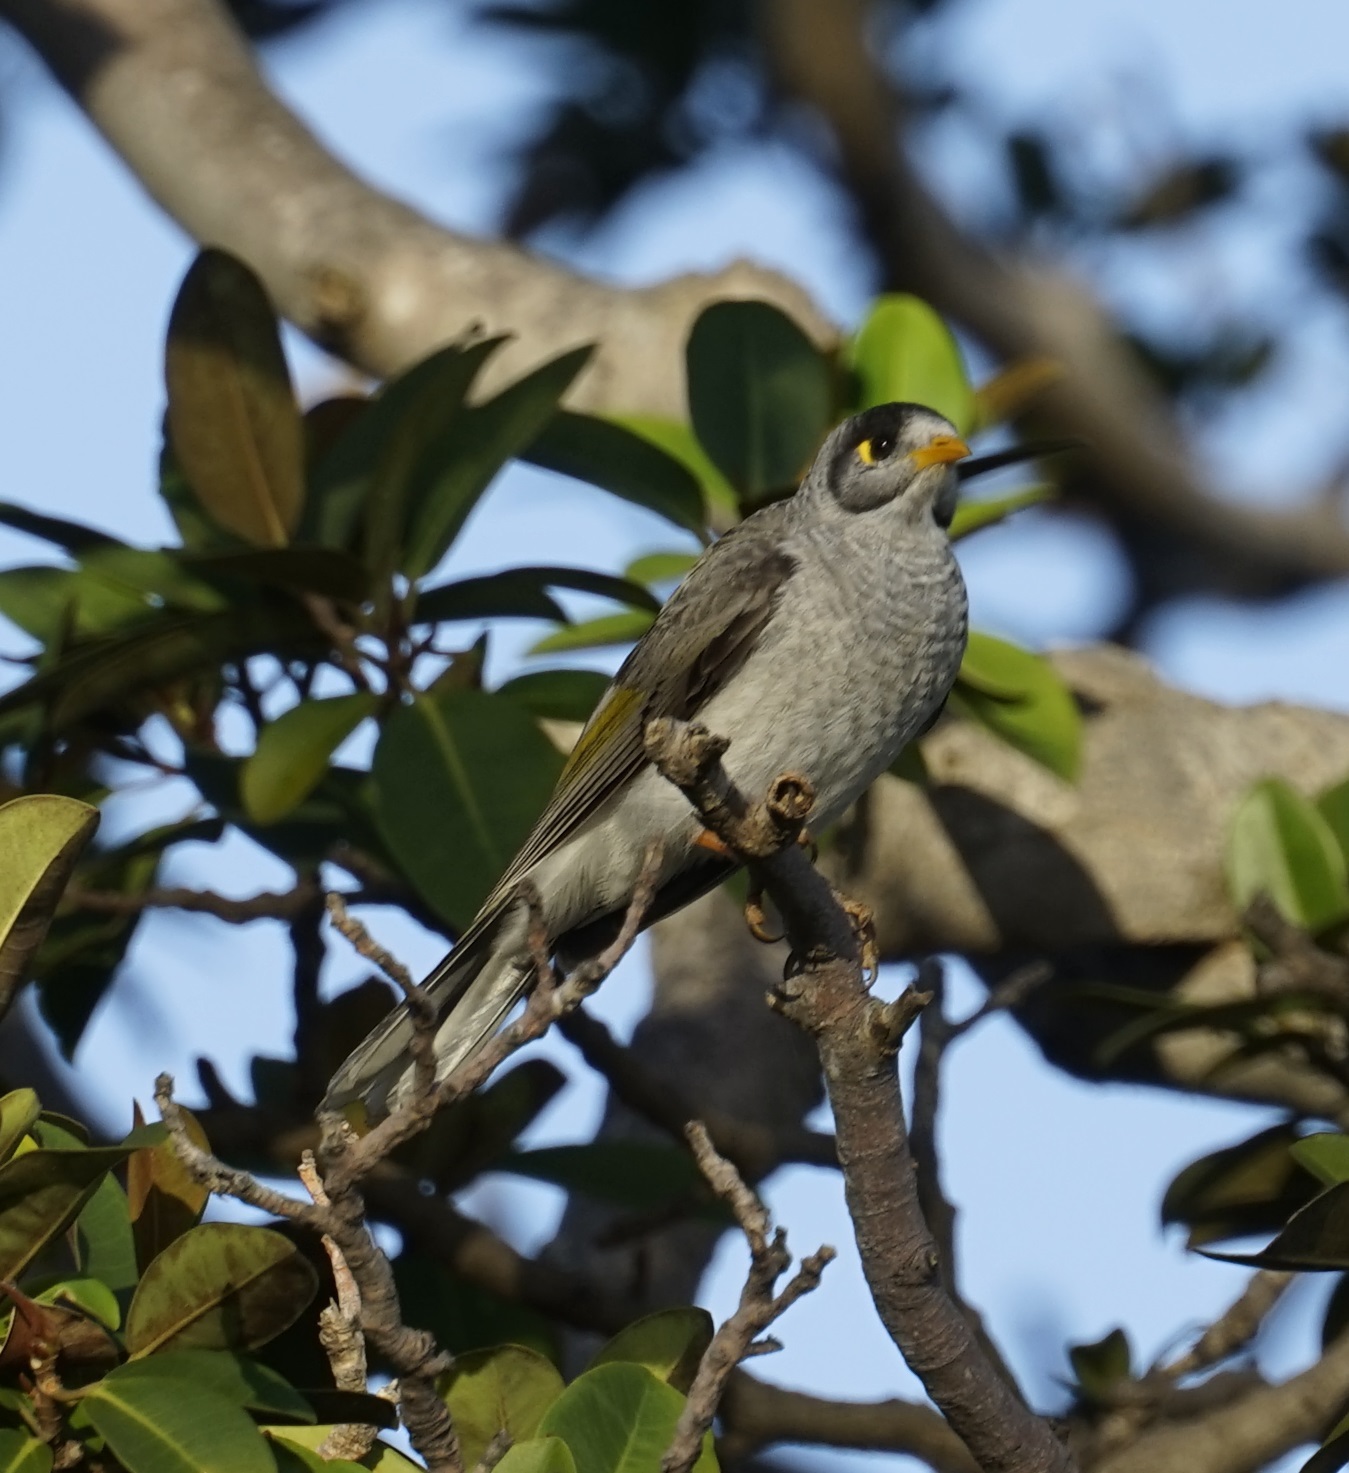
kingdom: Animalia
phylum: Chordata
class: Aves
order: Passeriformes
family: Meliphagidae
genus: Manorina
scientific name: Manorina melanocephala
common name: Noisy miner
